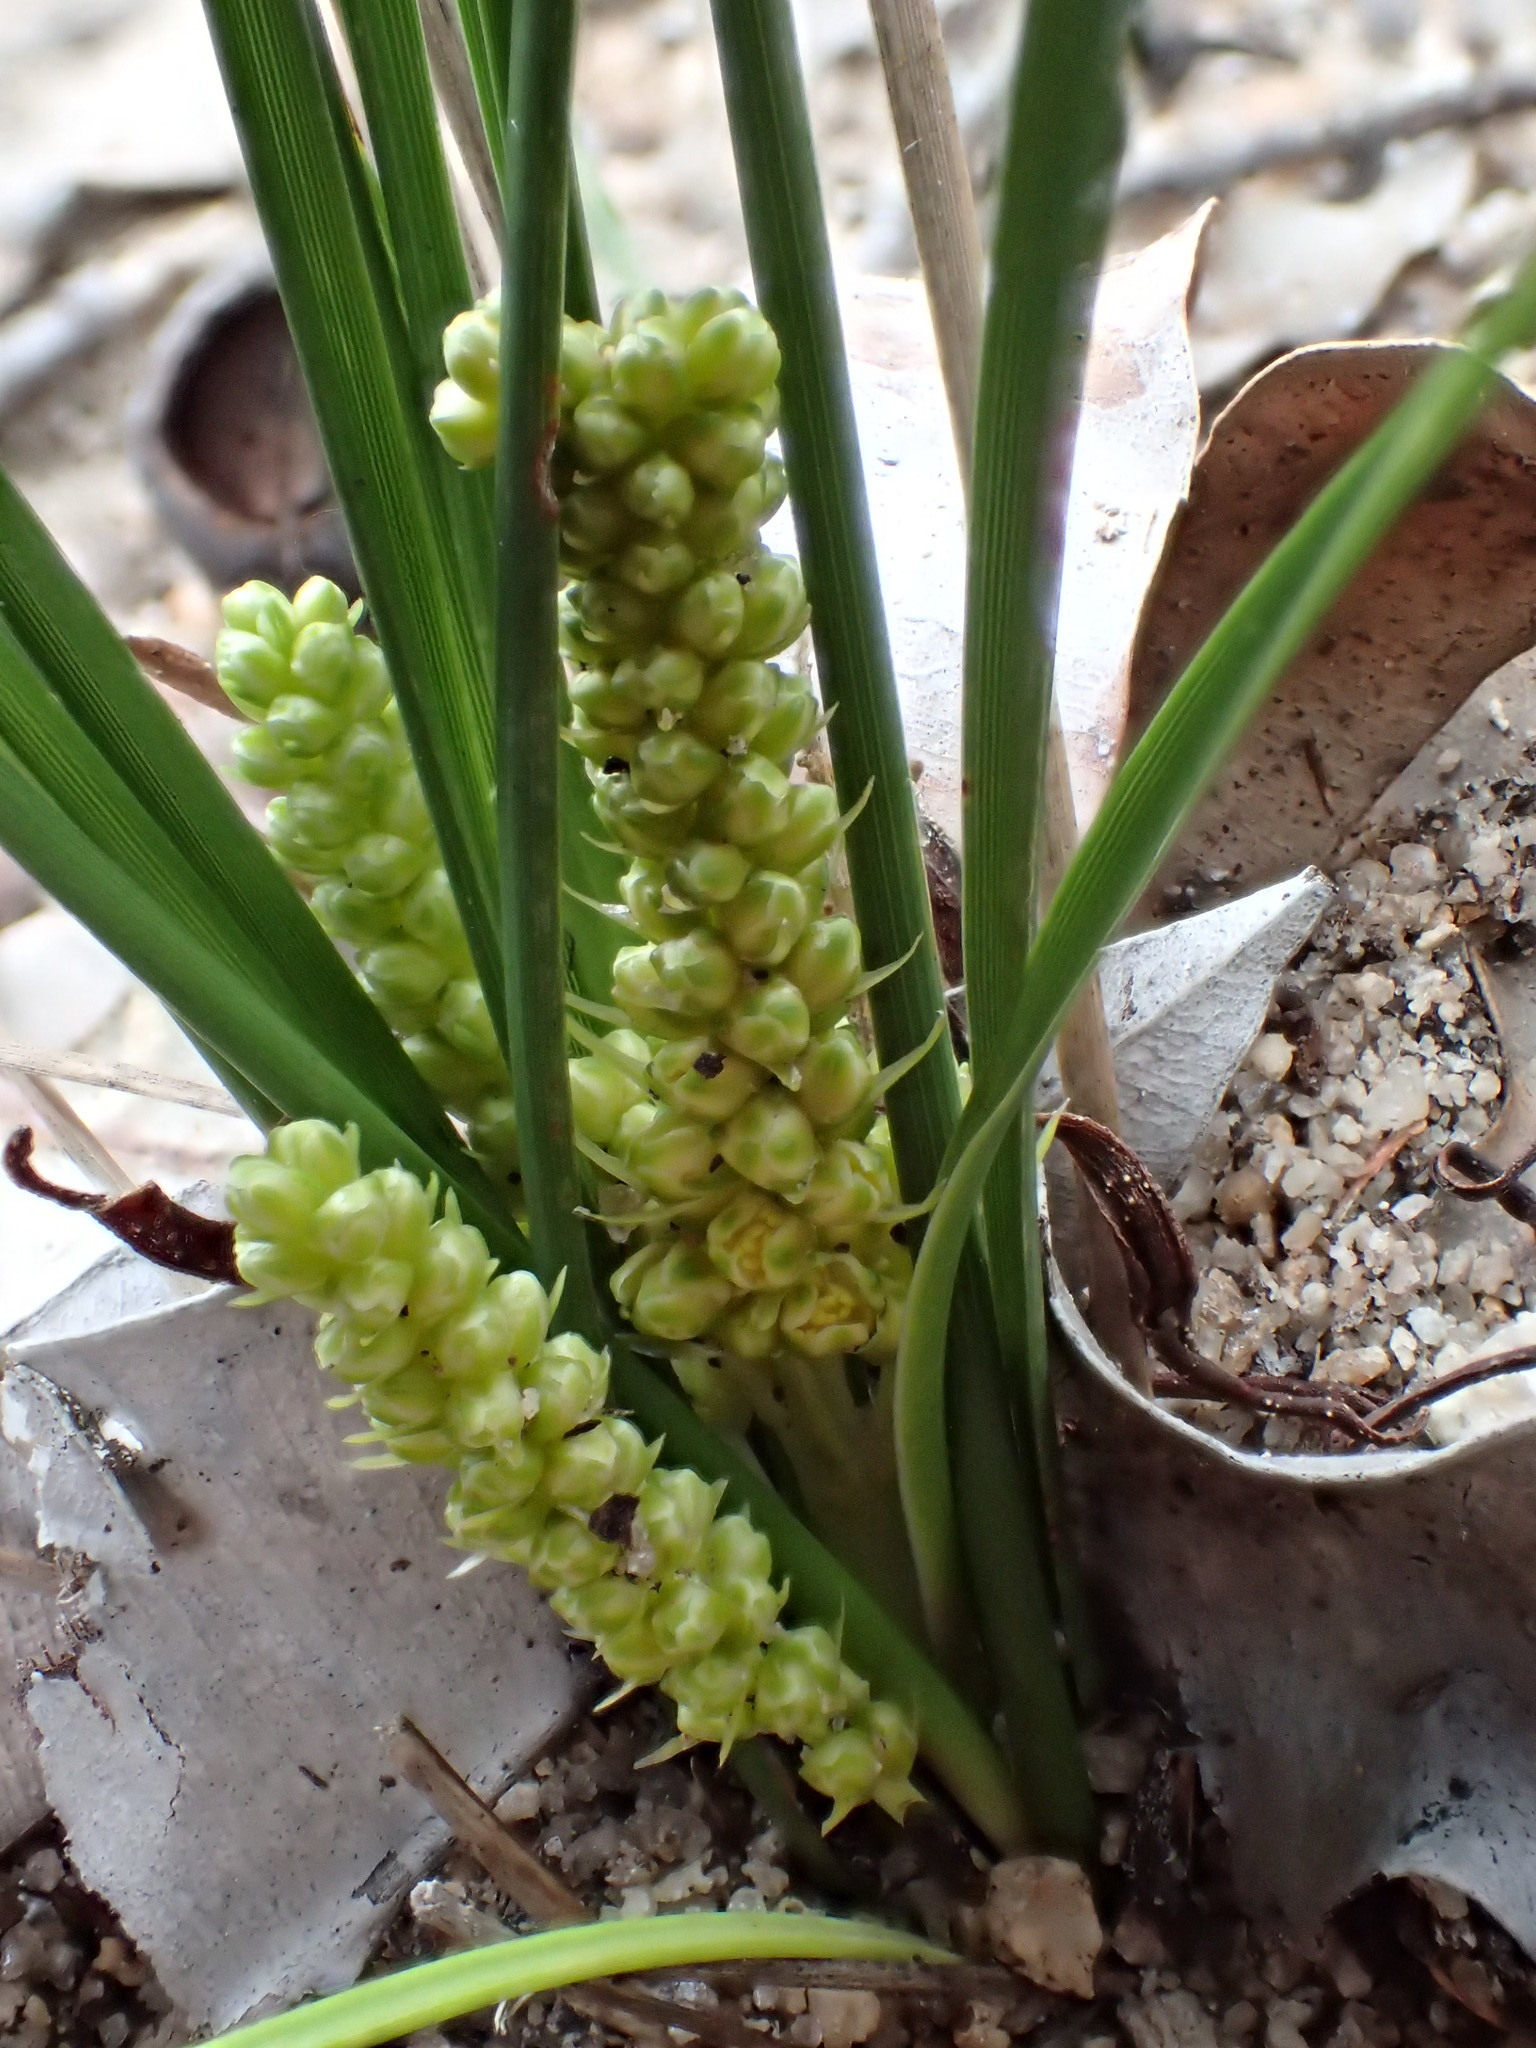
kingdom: Plantae
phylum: Tracheophyta
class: Liliopsida
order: Asparagales
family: Asparagaceae
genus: Lomandra
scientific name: Lomandra caespitosa
